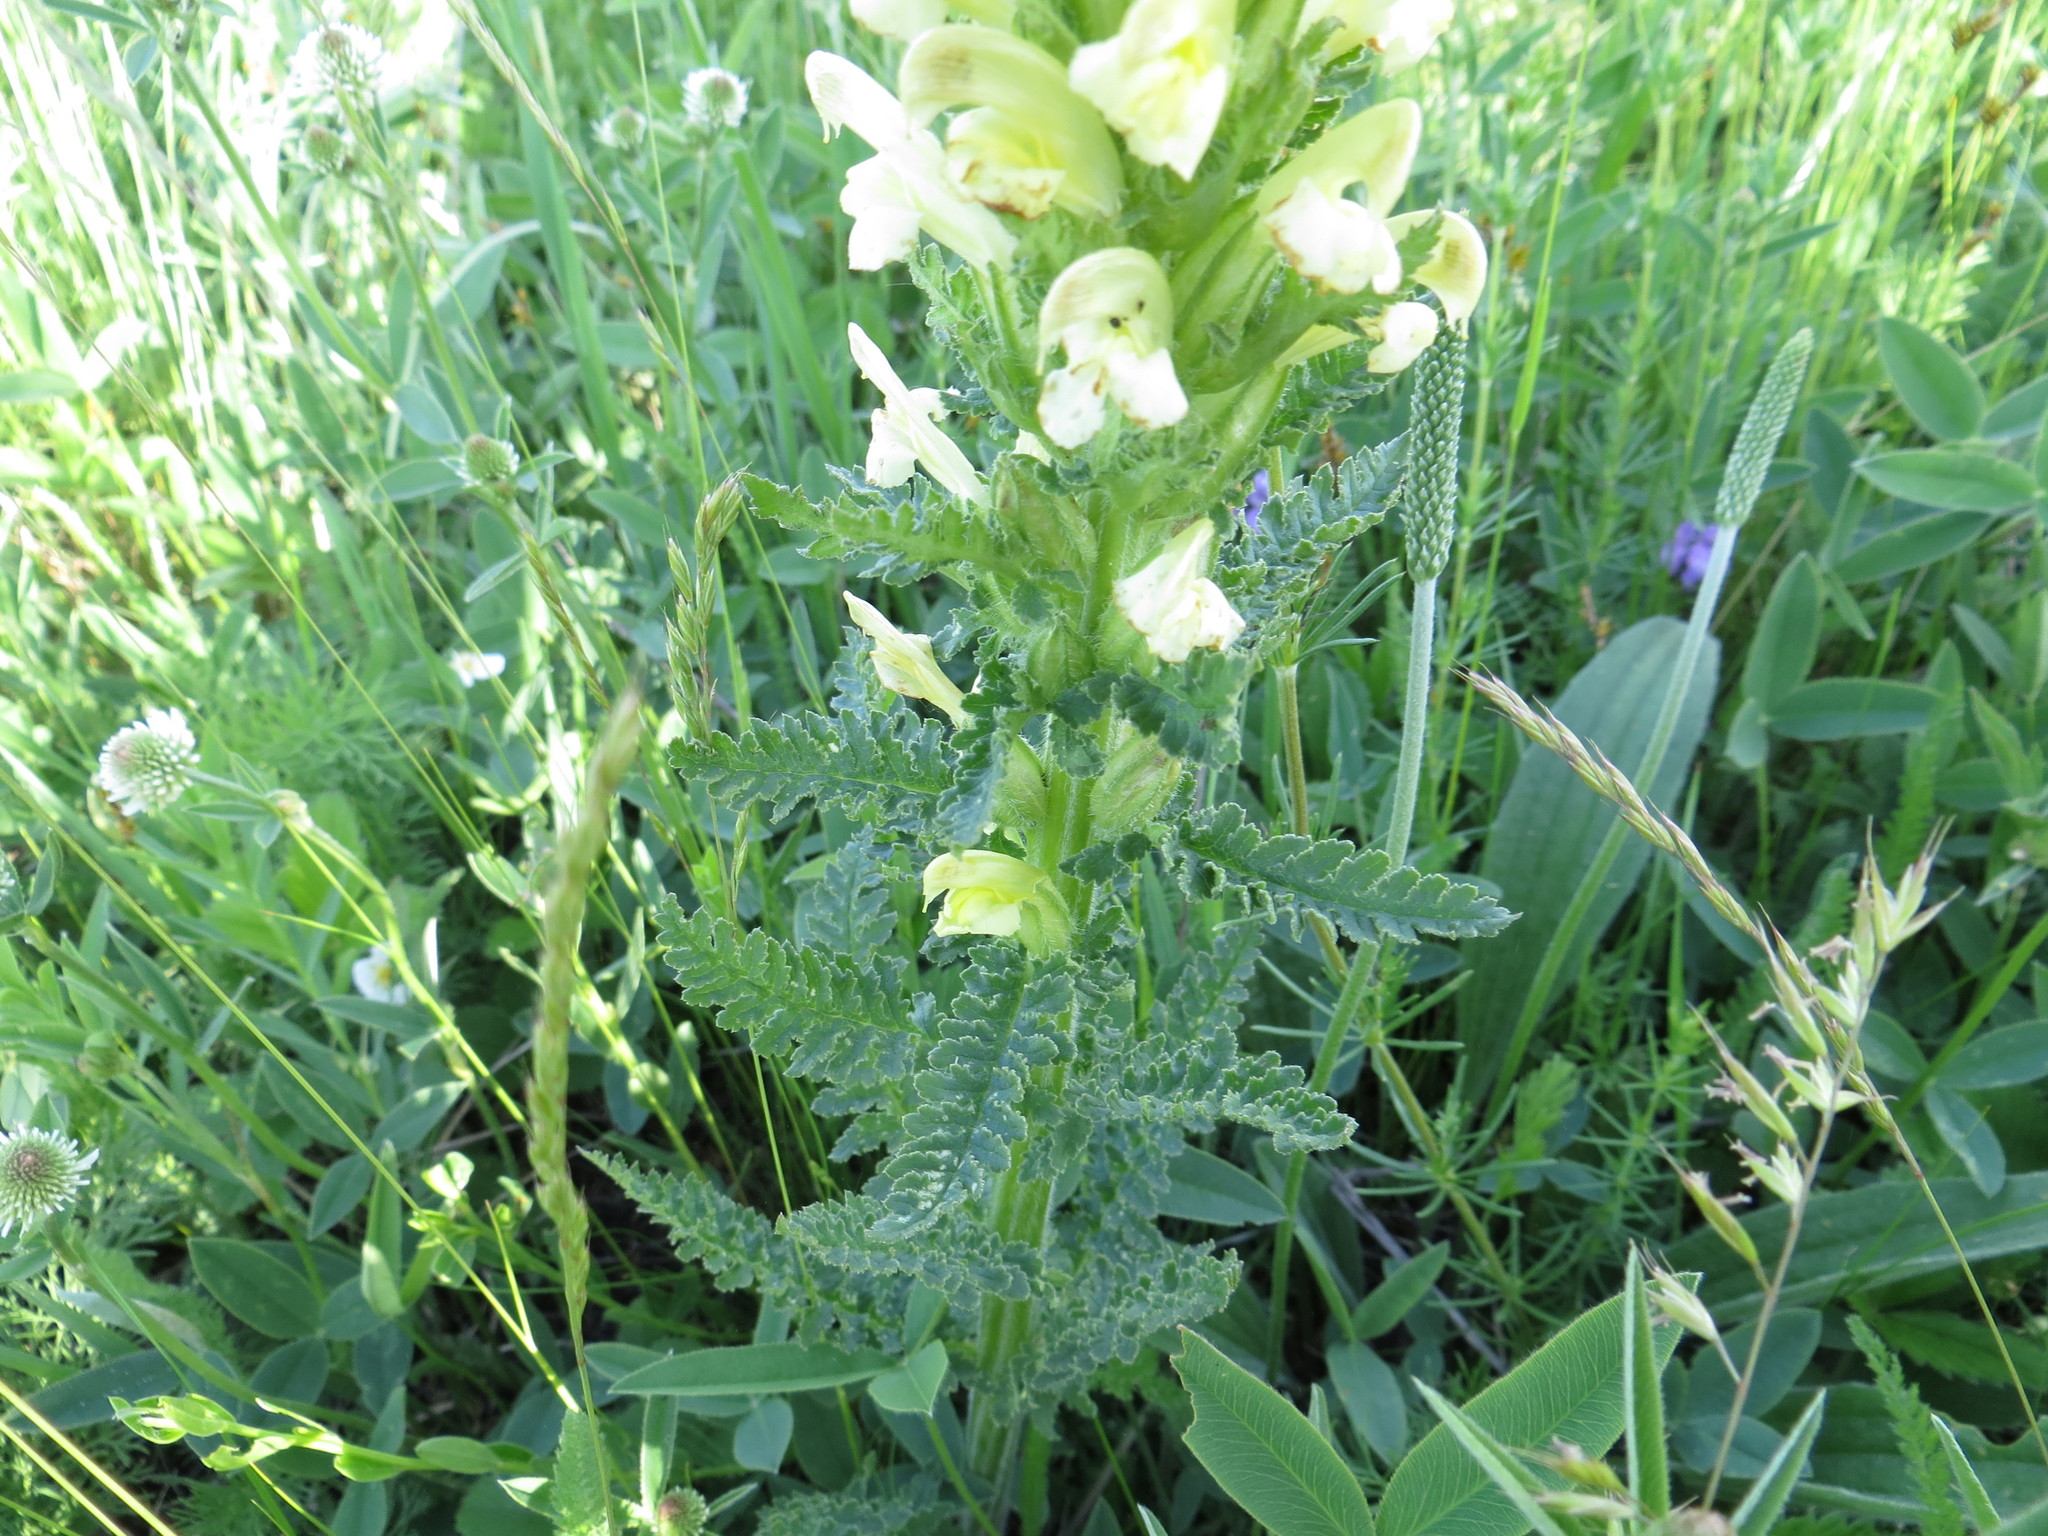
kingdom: Plantae
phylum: Tracheophyta
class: Magnoliopsida
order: Lamiales
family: Orobanchaceae
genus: Pedicularis
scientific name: Pedicularis kaufmannii
